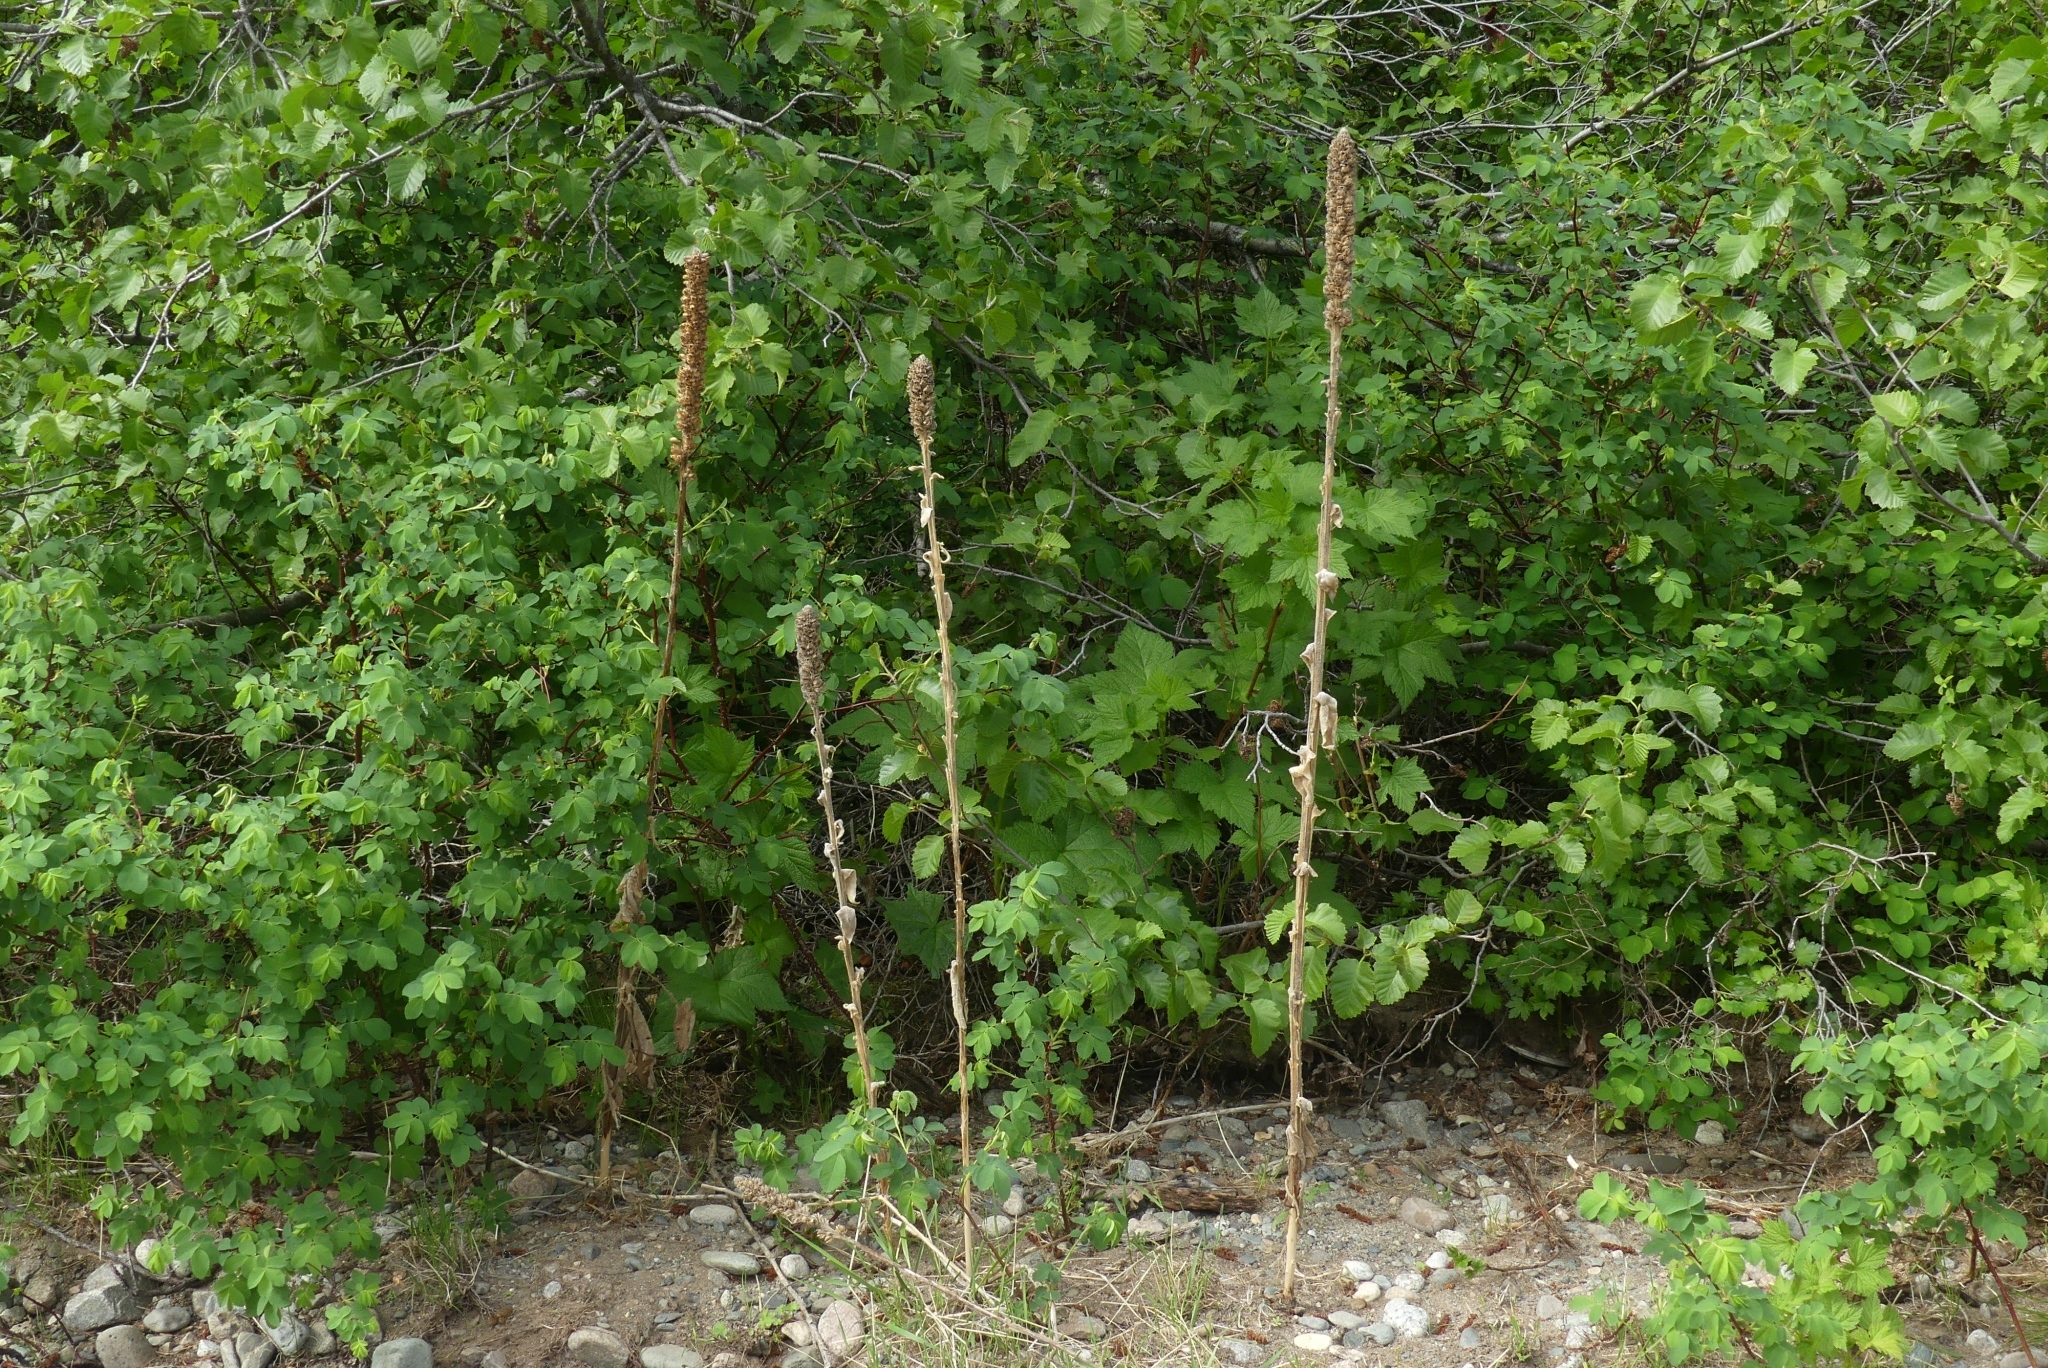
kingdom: Plantae
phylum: Tracheophyta
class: Magnoliopsida
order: Lamiales
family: Scrophulariaceae
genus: Verbascum
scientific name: Verbascum thapsus
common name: Common mullein
